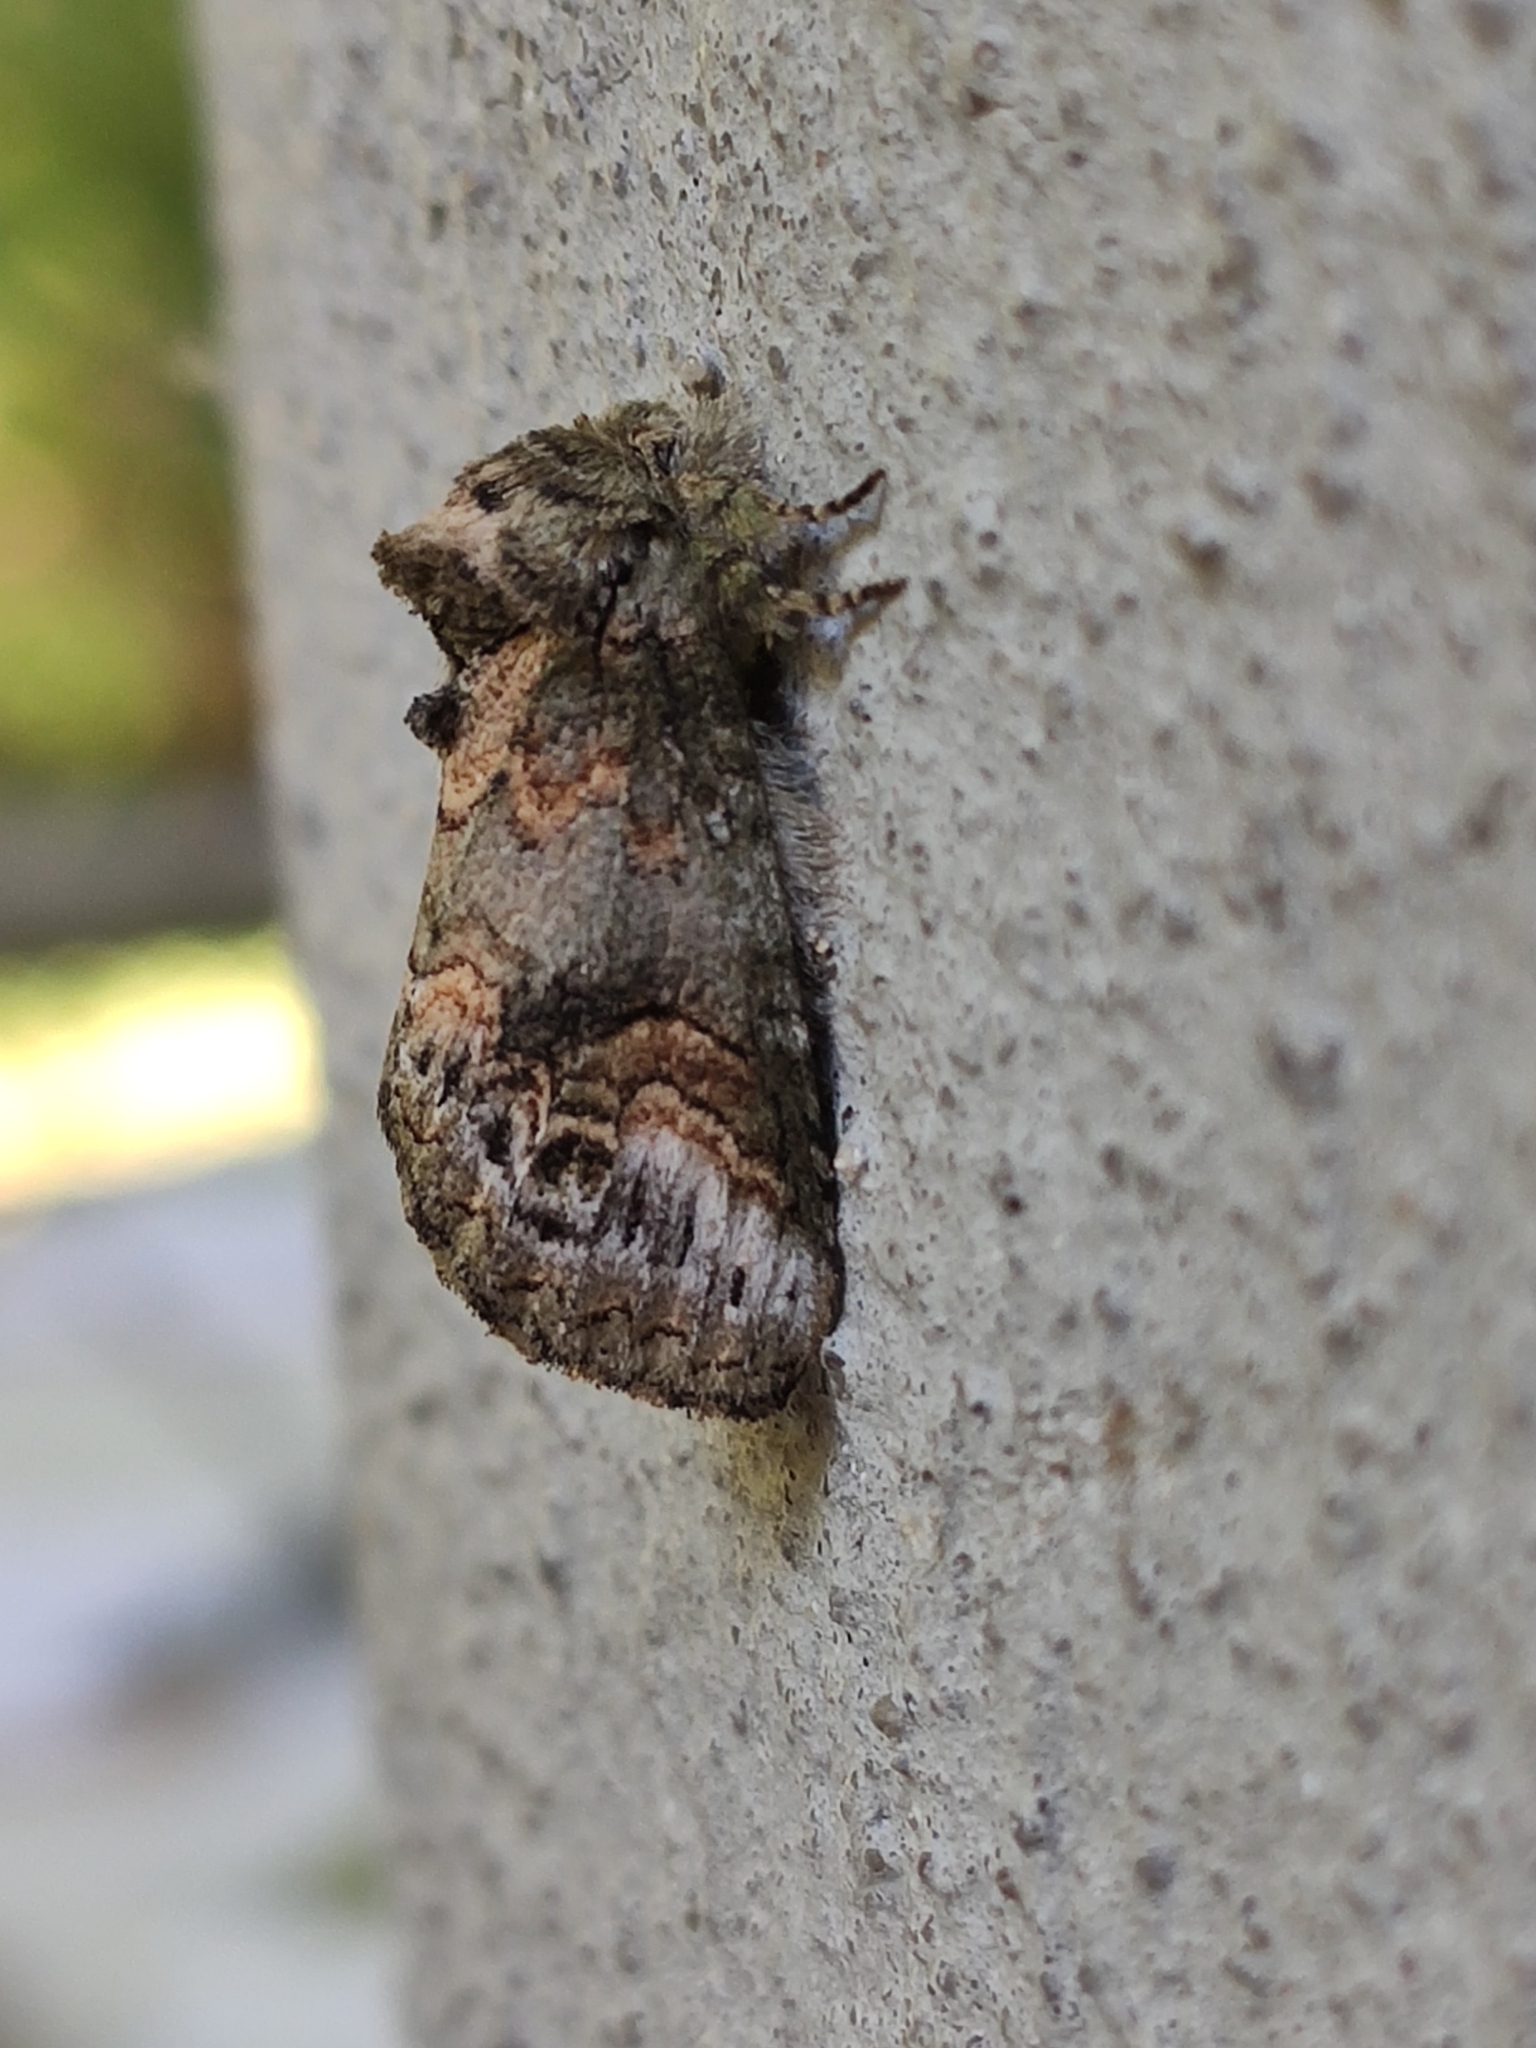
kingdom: Animalia
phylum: Arthropoda
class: Insecta
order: Lepidoptera
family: Notodontidae
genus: Rifargia
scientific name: Rifargia
